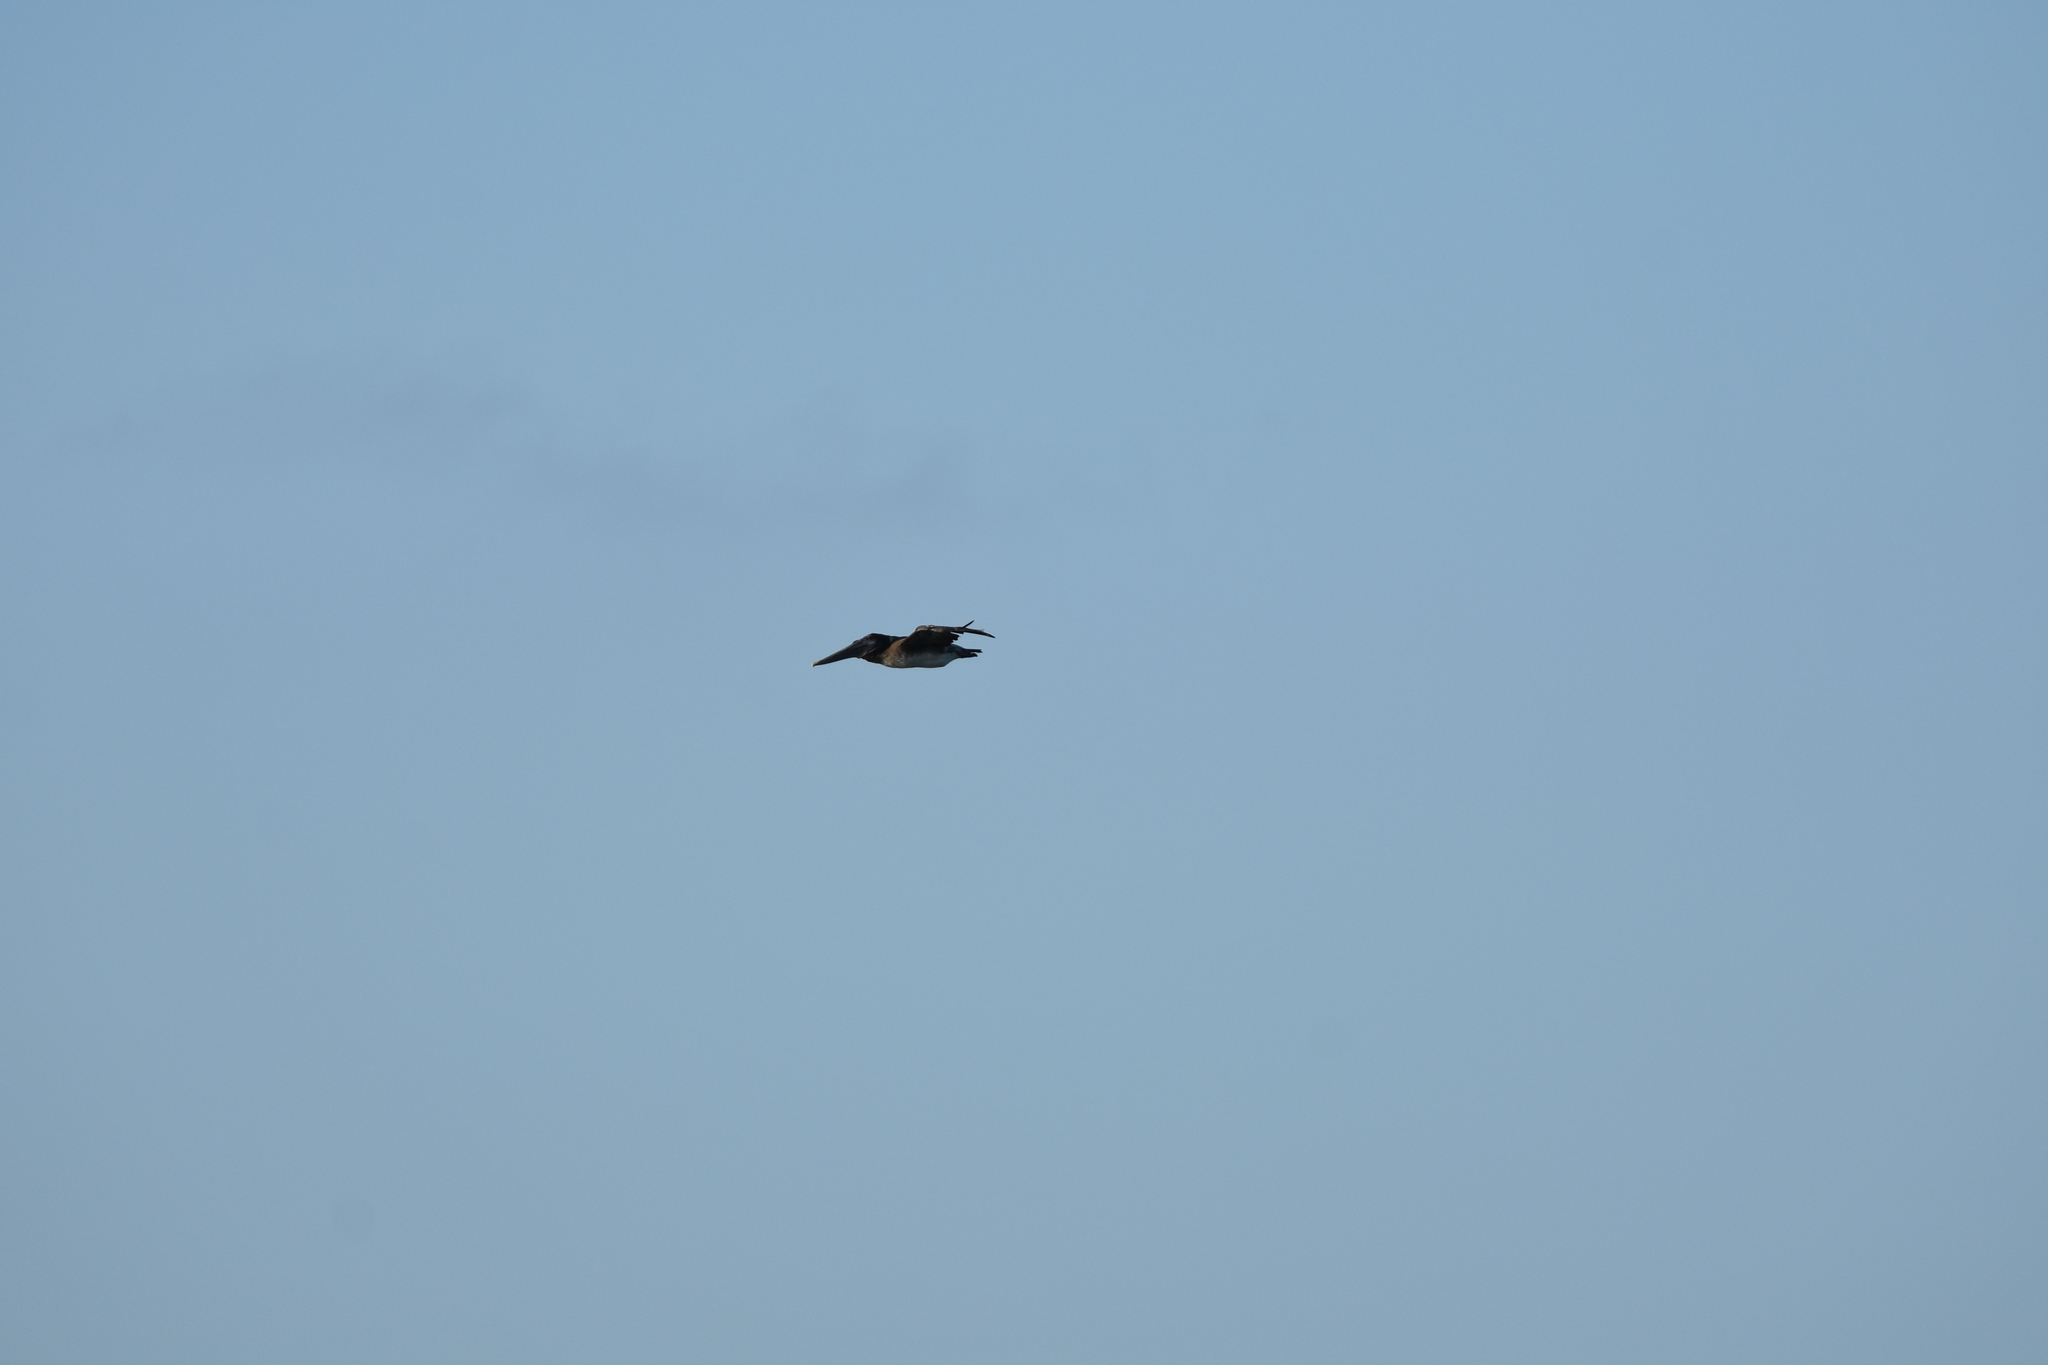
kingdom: Animalia
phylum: Chordata
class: Aves
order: Pelecaniformes
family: Pelecanidae
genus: Pelecanus
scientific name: Pelecanus occidentalis
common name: Brown pelican
